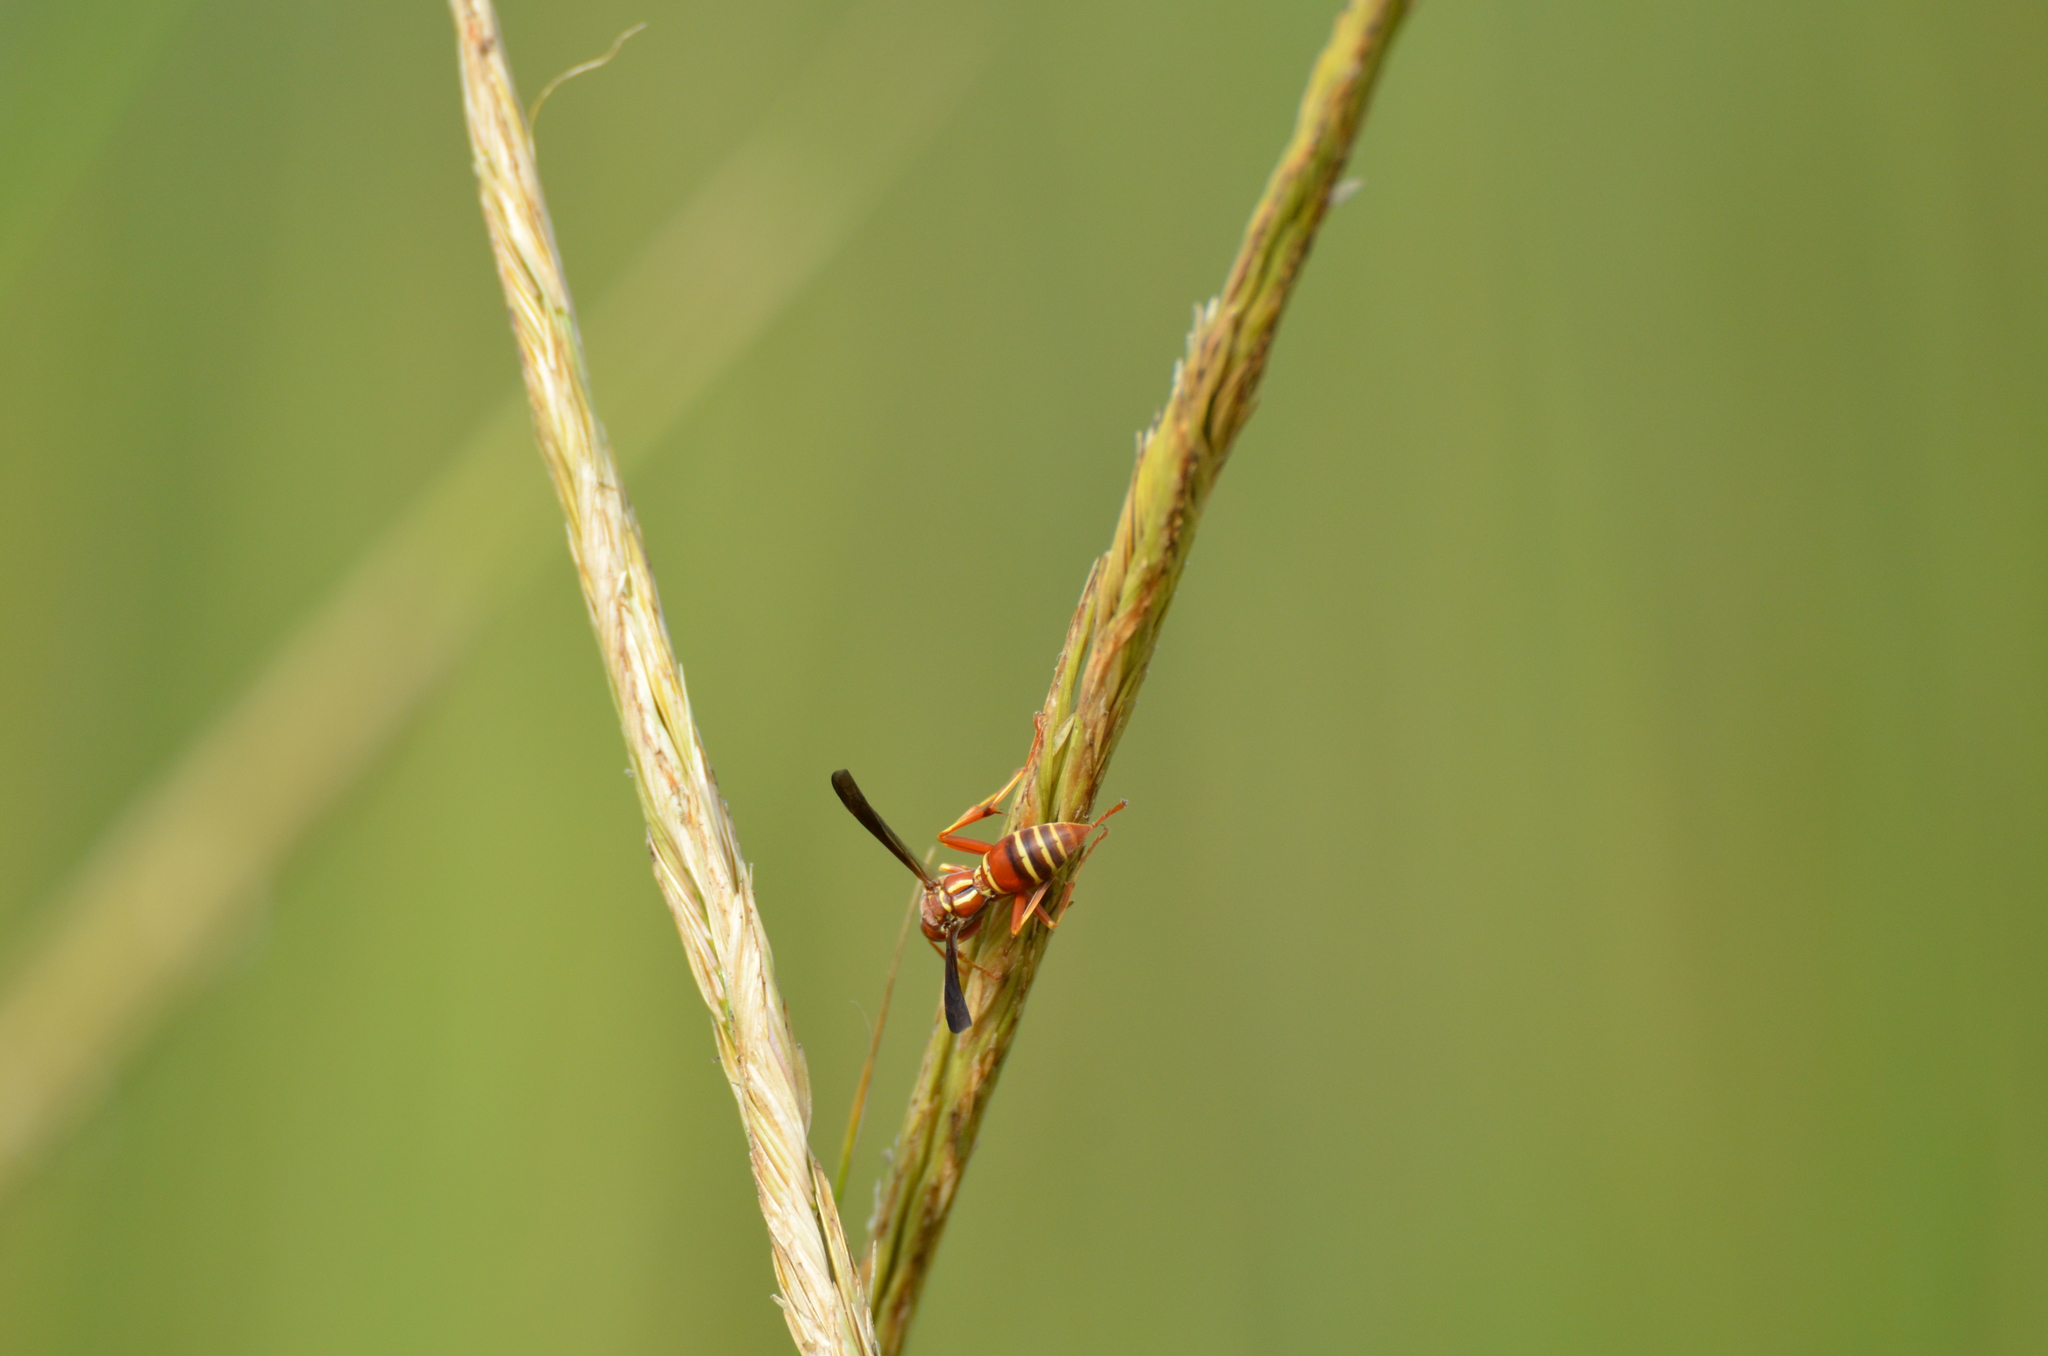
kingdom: Animalia
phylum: Arthropoda
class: Insecta
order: Hymenoptera
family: Eumenidae
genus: Polistes
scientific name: Polistes bellicosus
